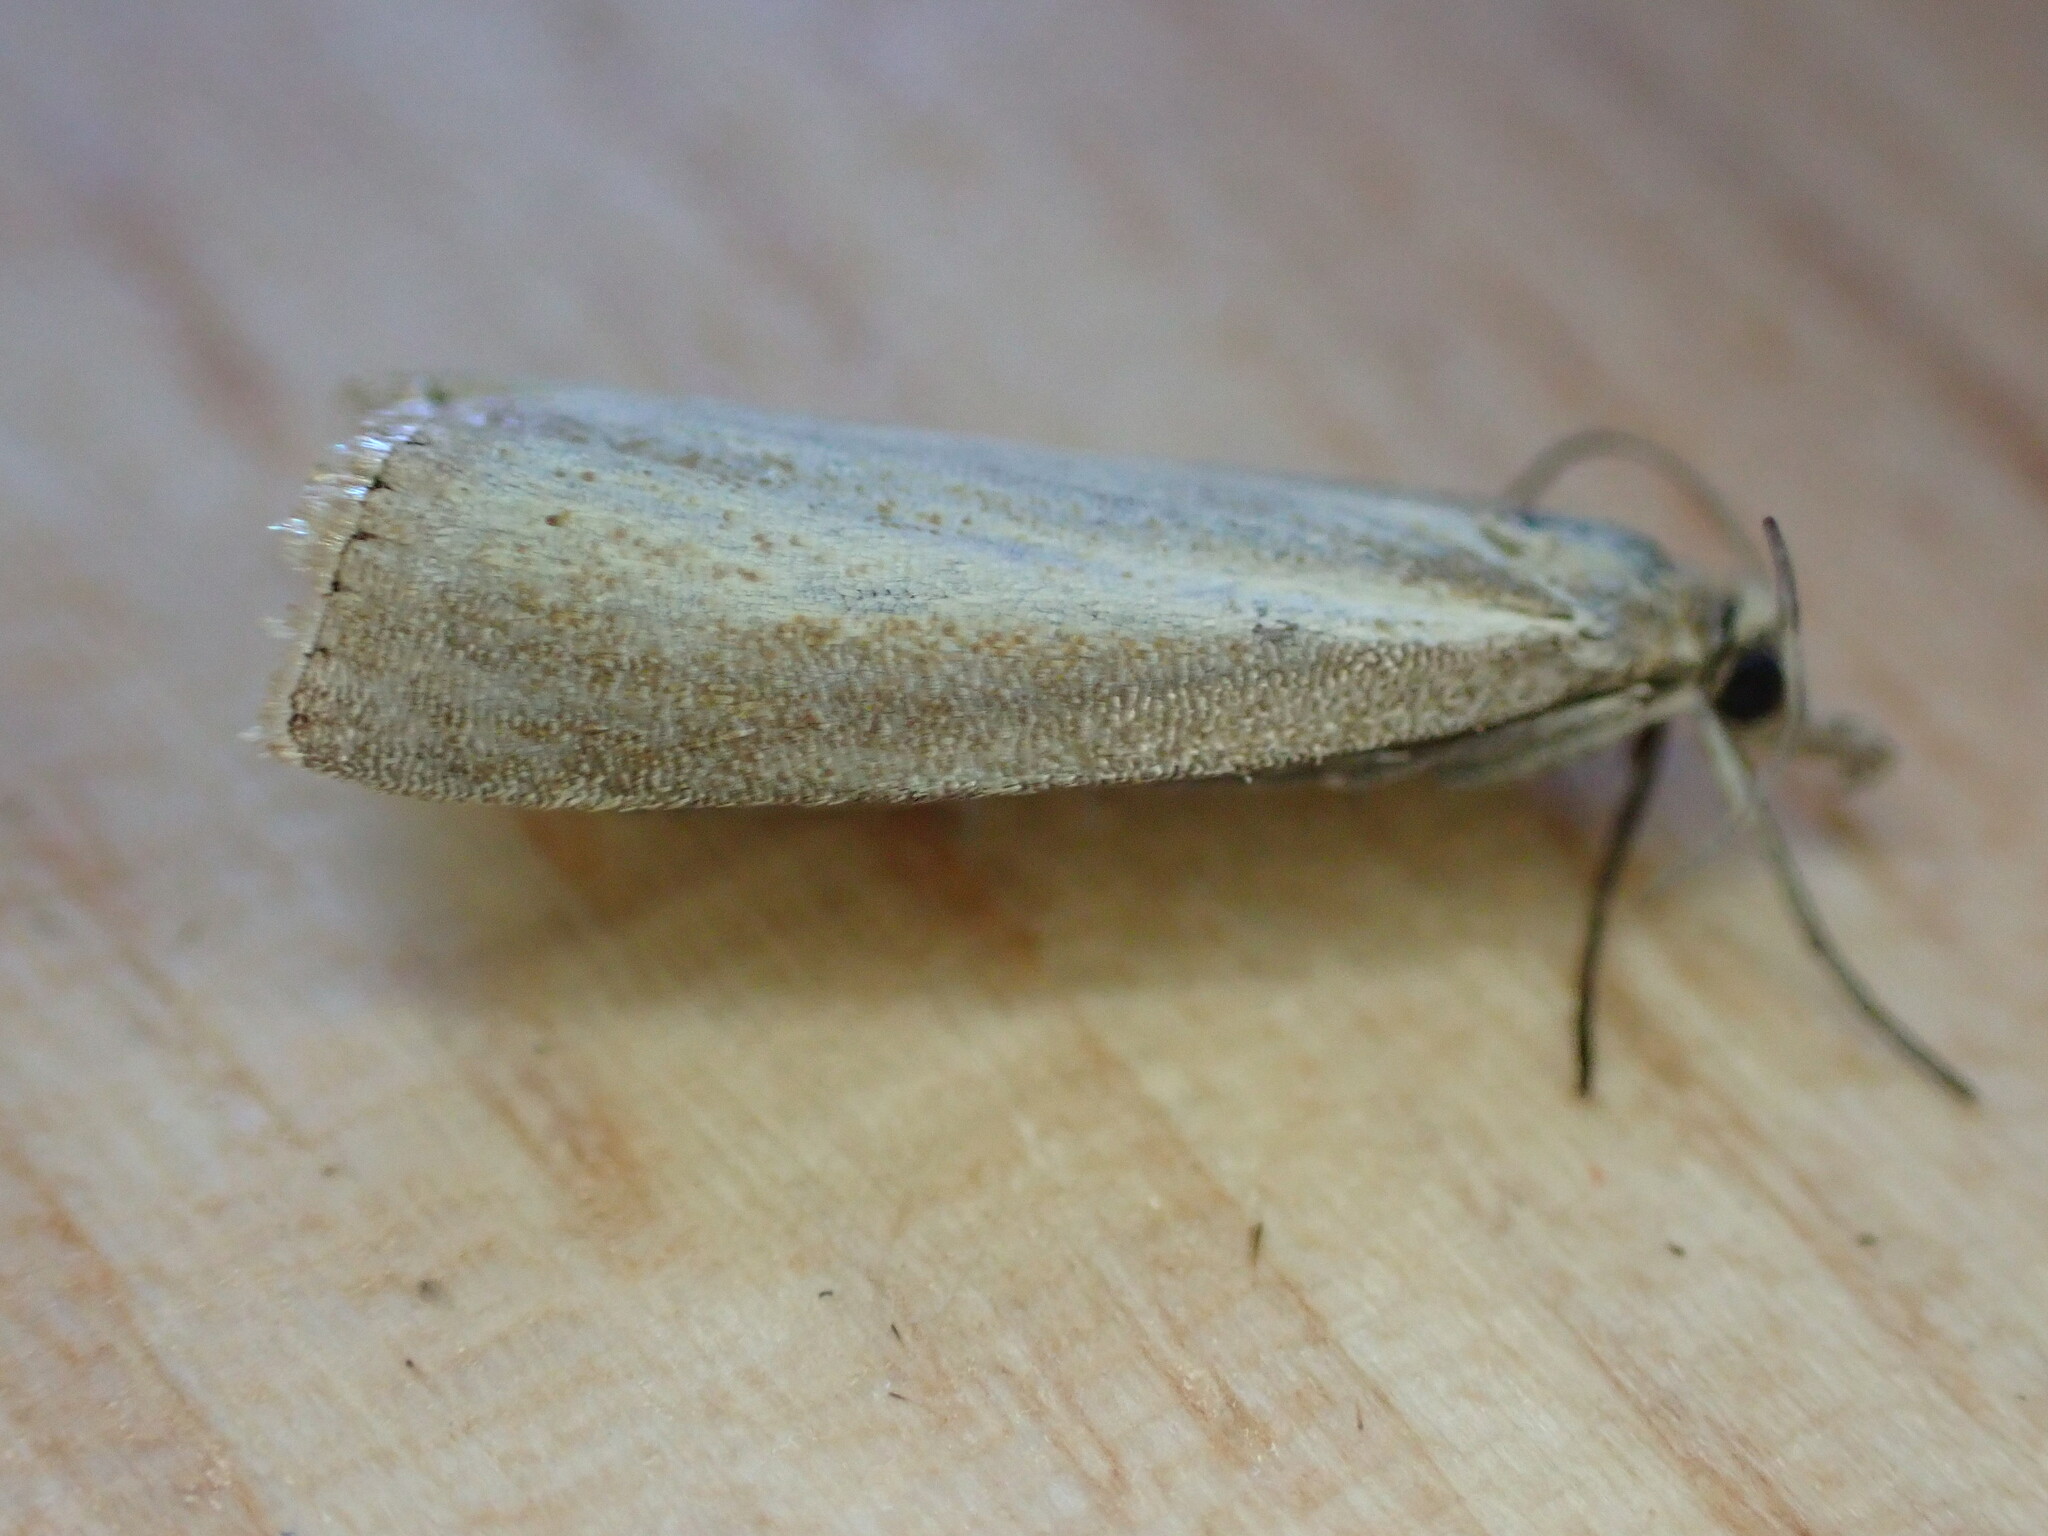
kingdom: Animalia
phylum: Arthropoda
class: Insecta
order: Lepidoptera
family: Crambidae
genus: Agriphila
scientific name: Agriphila straminella
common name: Straw grass-veneer
